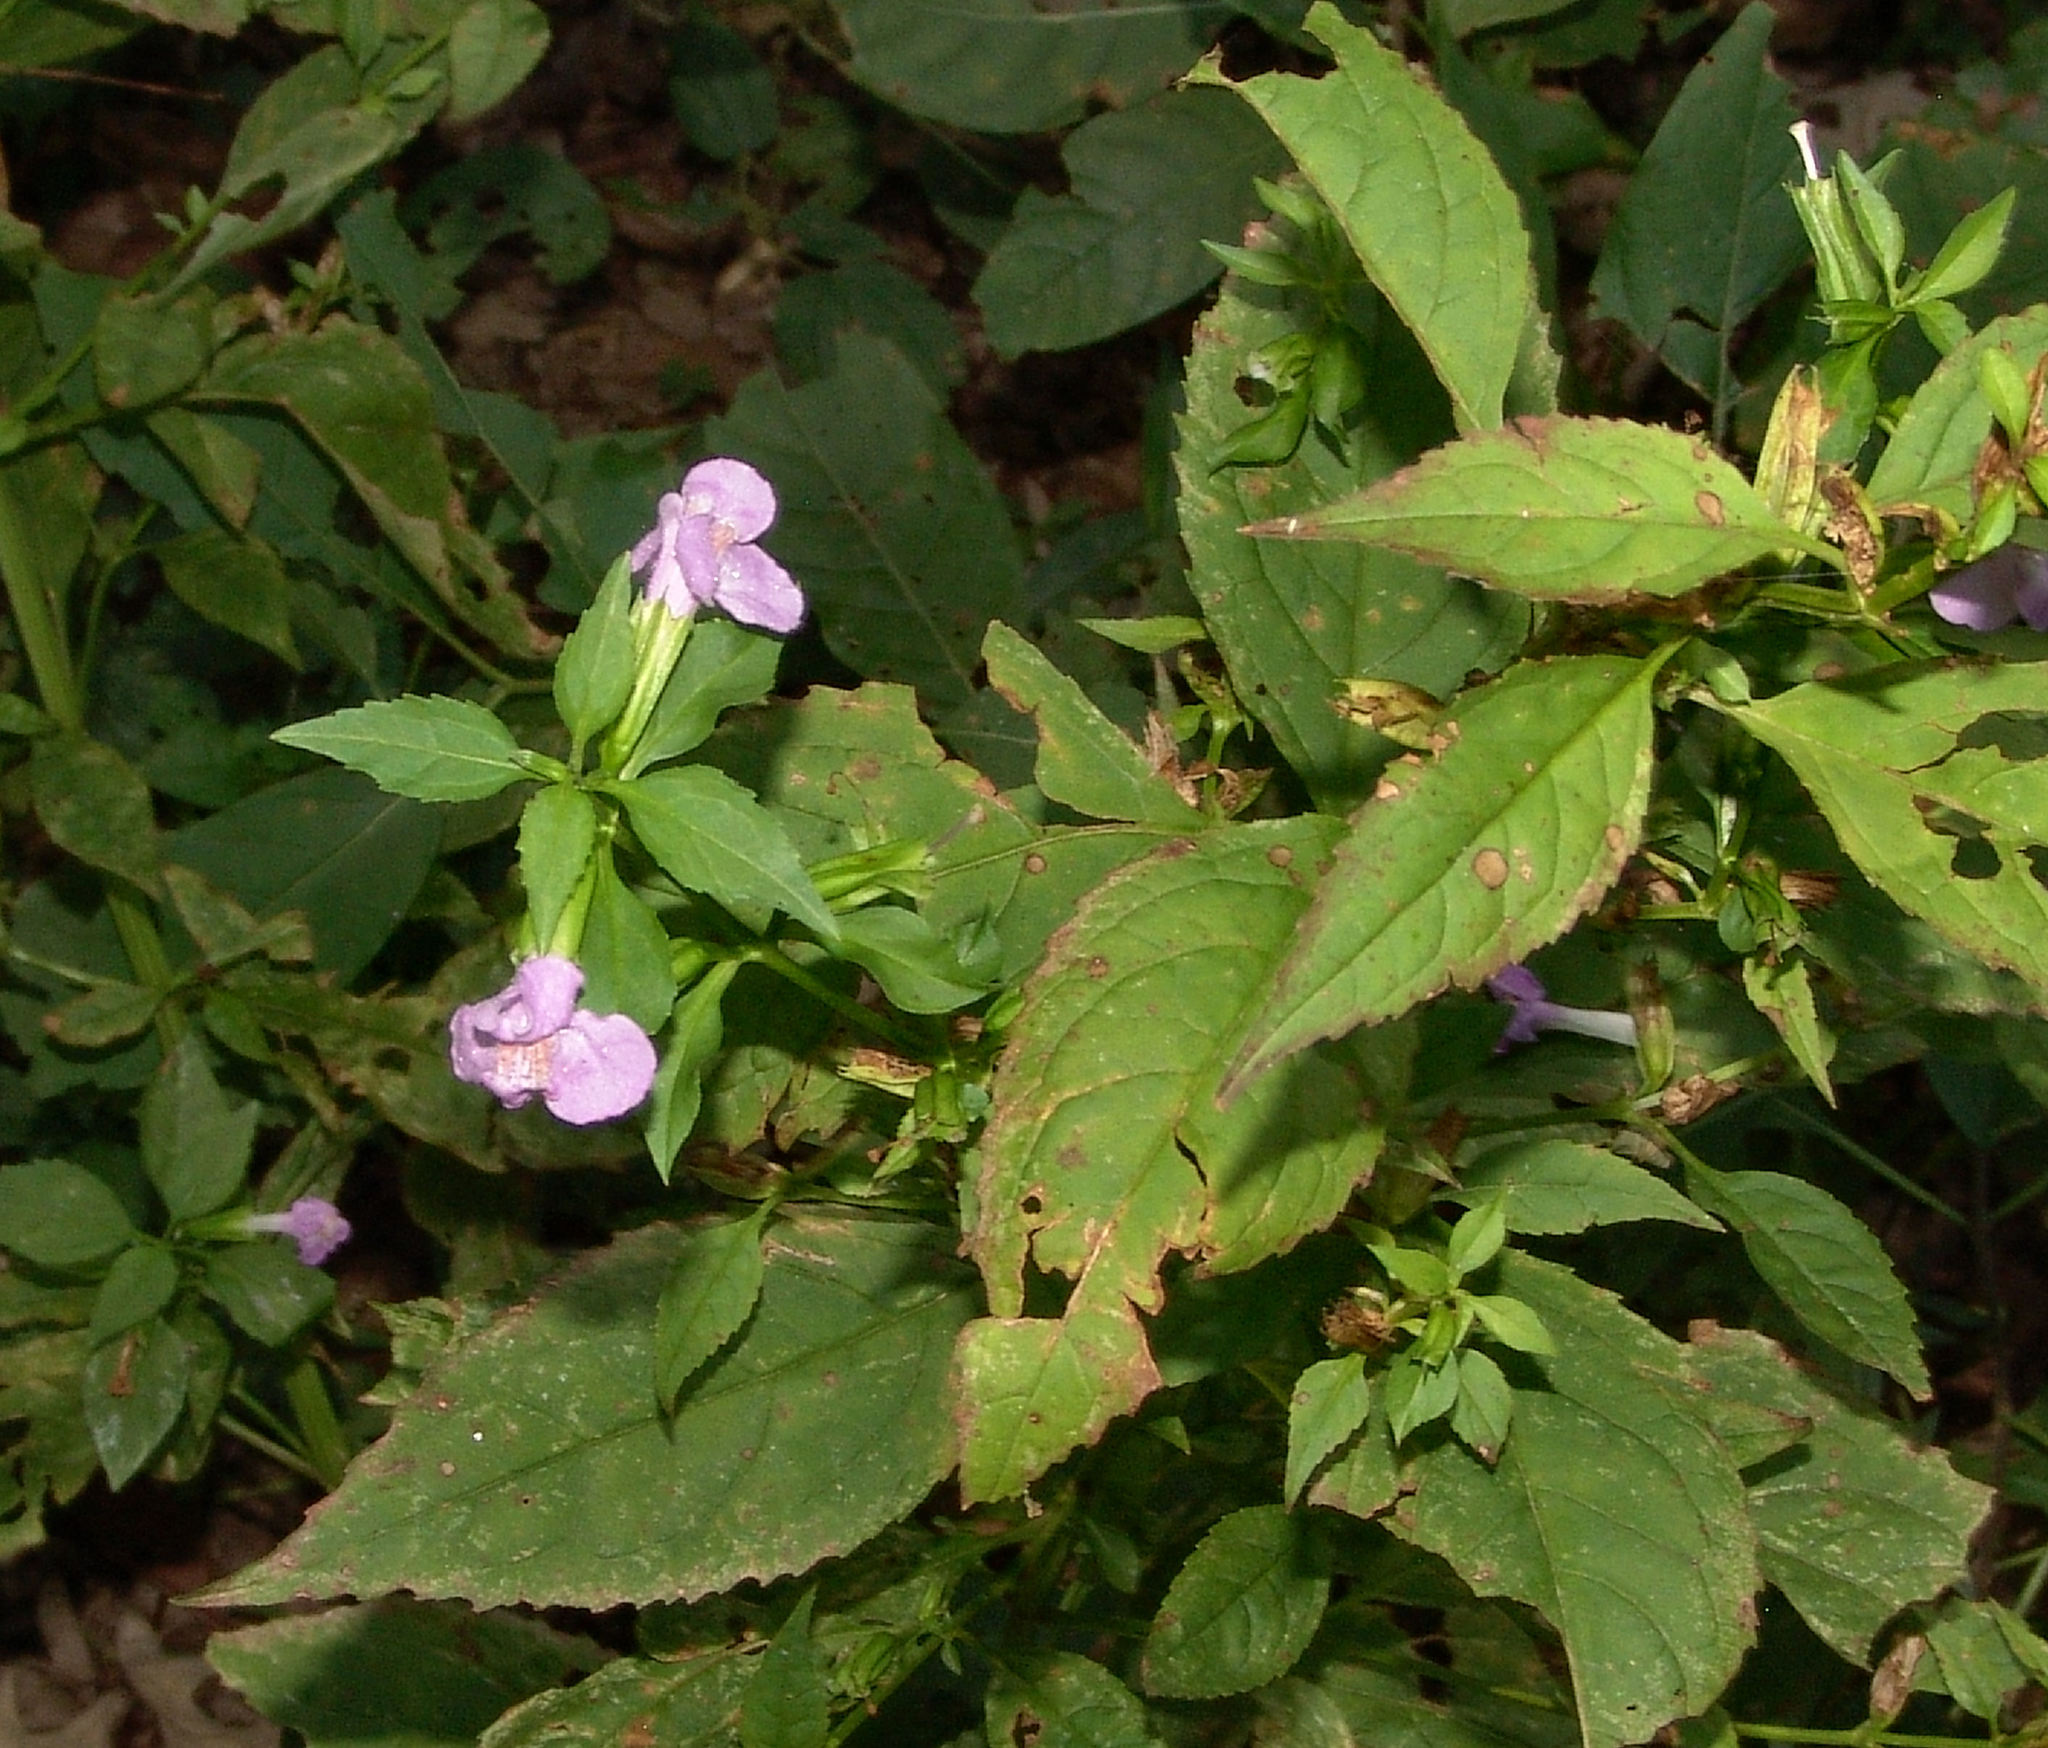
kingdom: Plantae
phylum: Tracheophyta
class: Magnoliopsida
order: Lamiales
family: Phrymaceae
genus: Mimulus
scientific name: Mimulus alatus
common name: Sharp-wing monkey-flower
